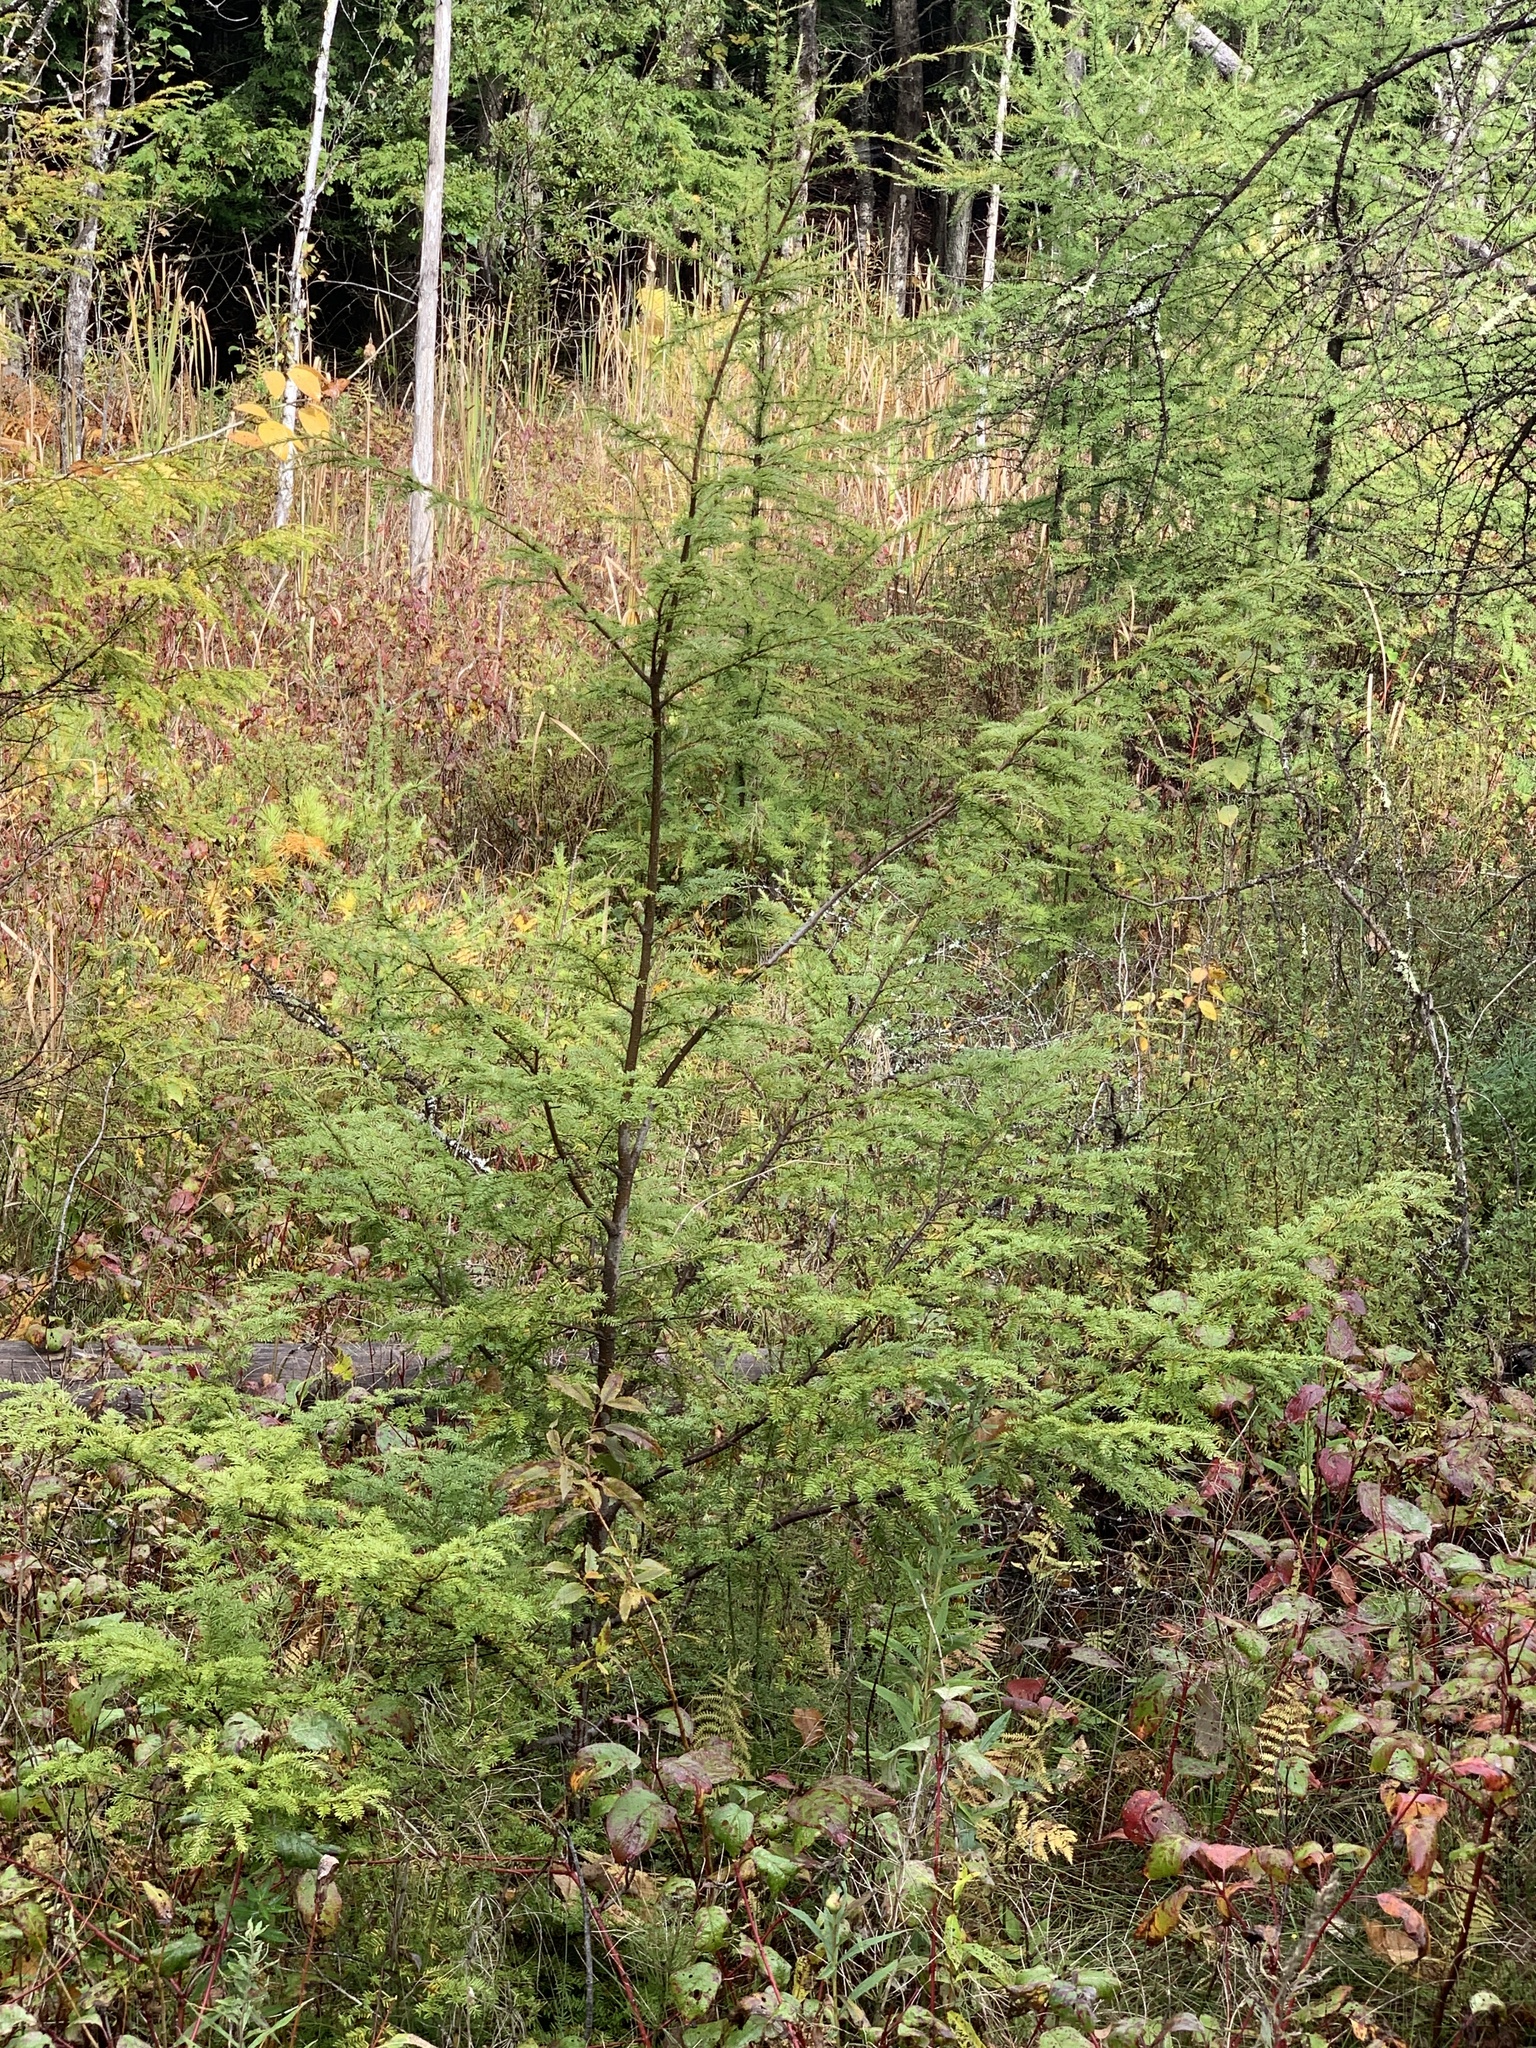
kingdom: Plantae
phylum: Tracheophyta
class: Pinopsida
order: Pinales
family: Pinaceae
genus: Tsuga
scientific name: Tsuga canadensis
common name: Eastern hemlock
